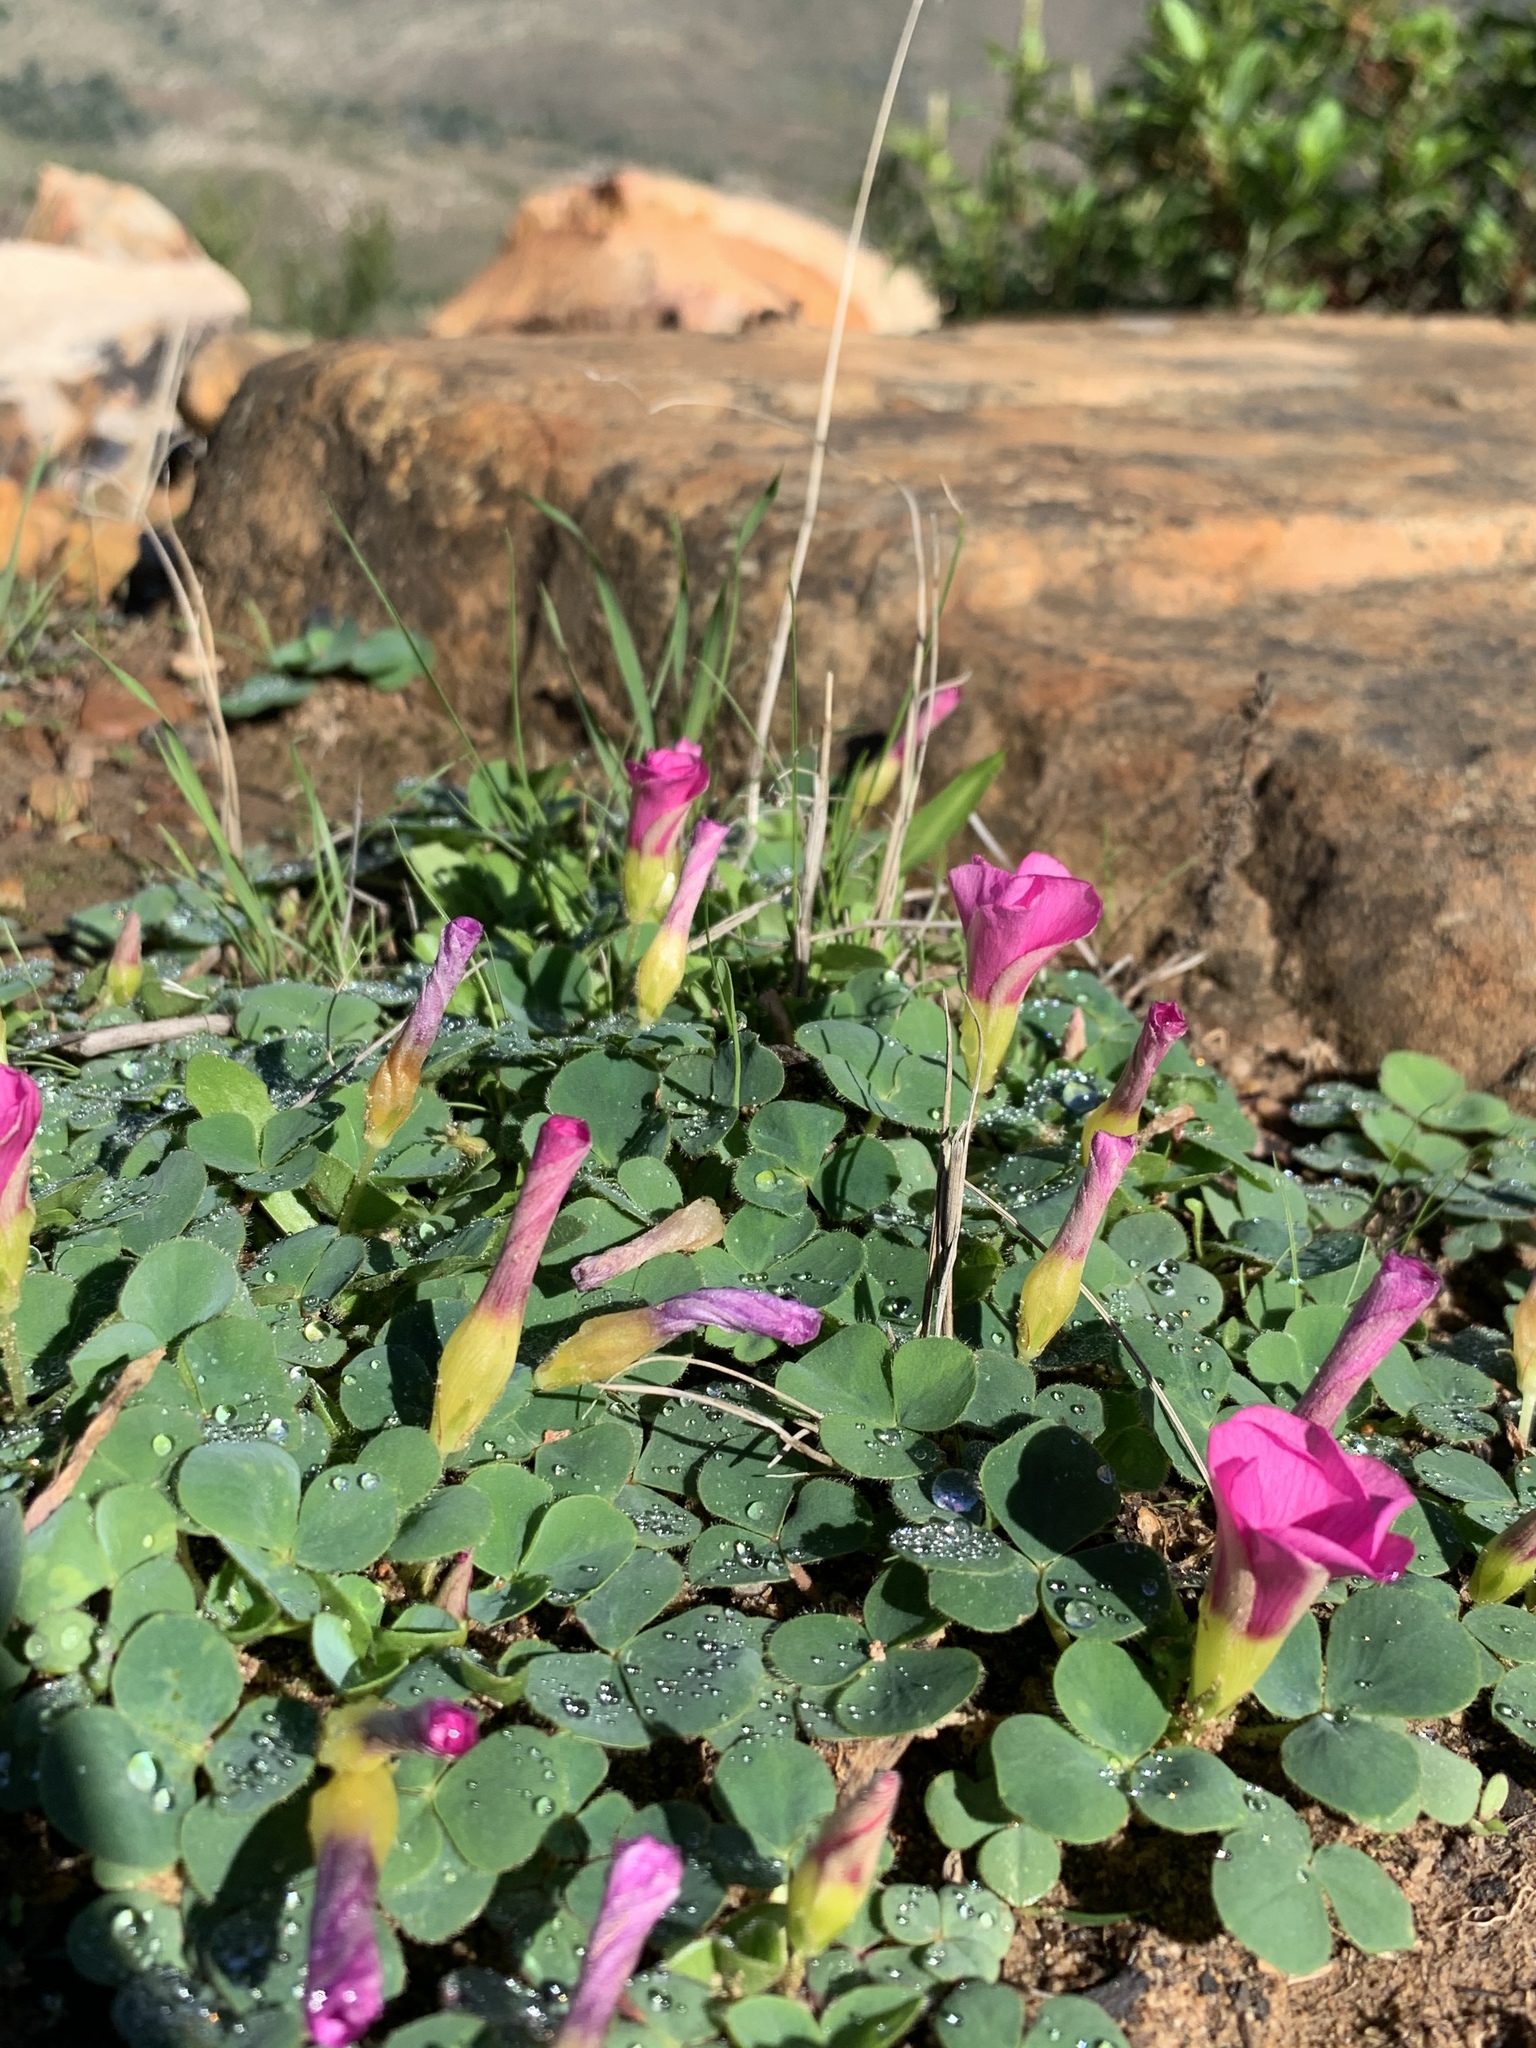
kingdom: Plantae
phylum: Tracheophyta
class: Magnoliopsida
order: Oxalidales
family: Oxalidaceae
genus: Oxalis
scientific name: Oxalis purpurea
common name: Purple woodsorrel
